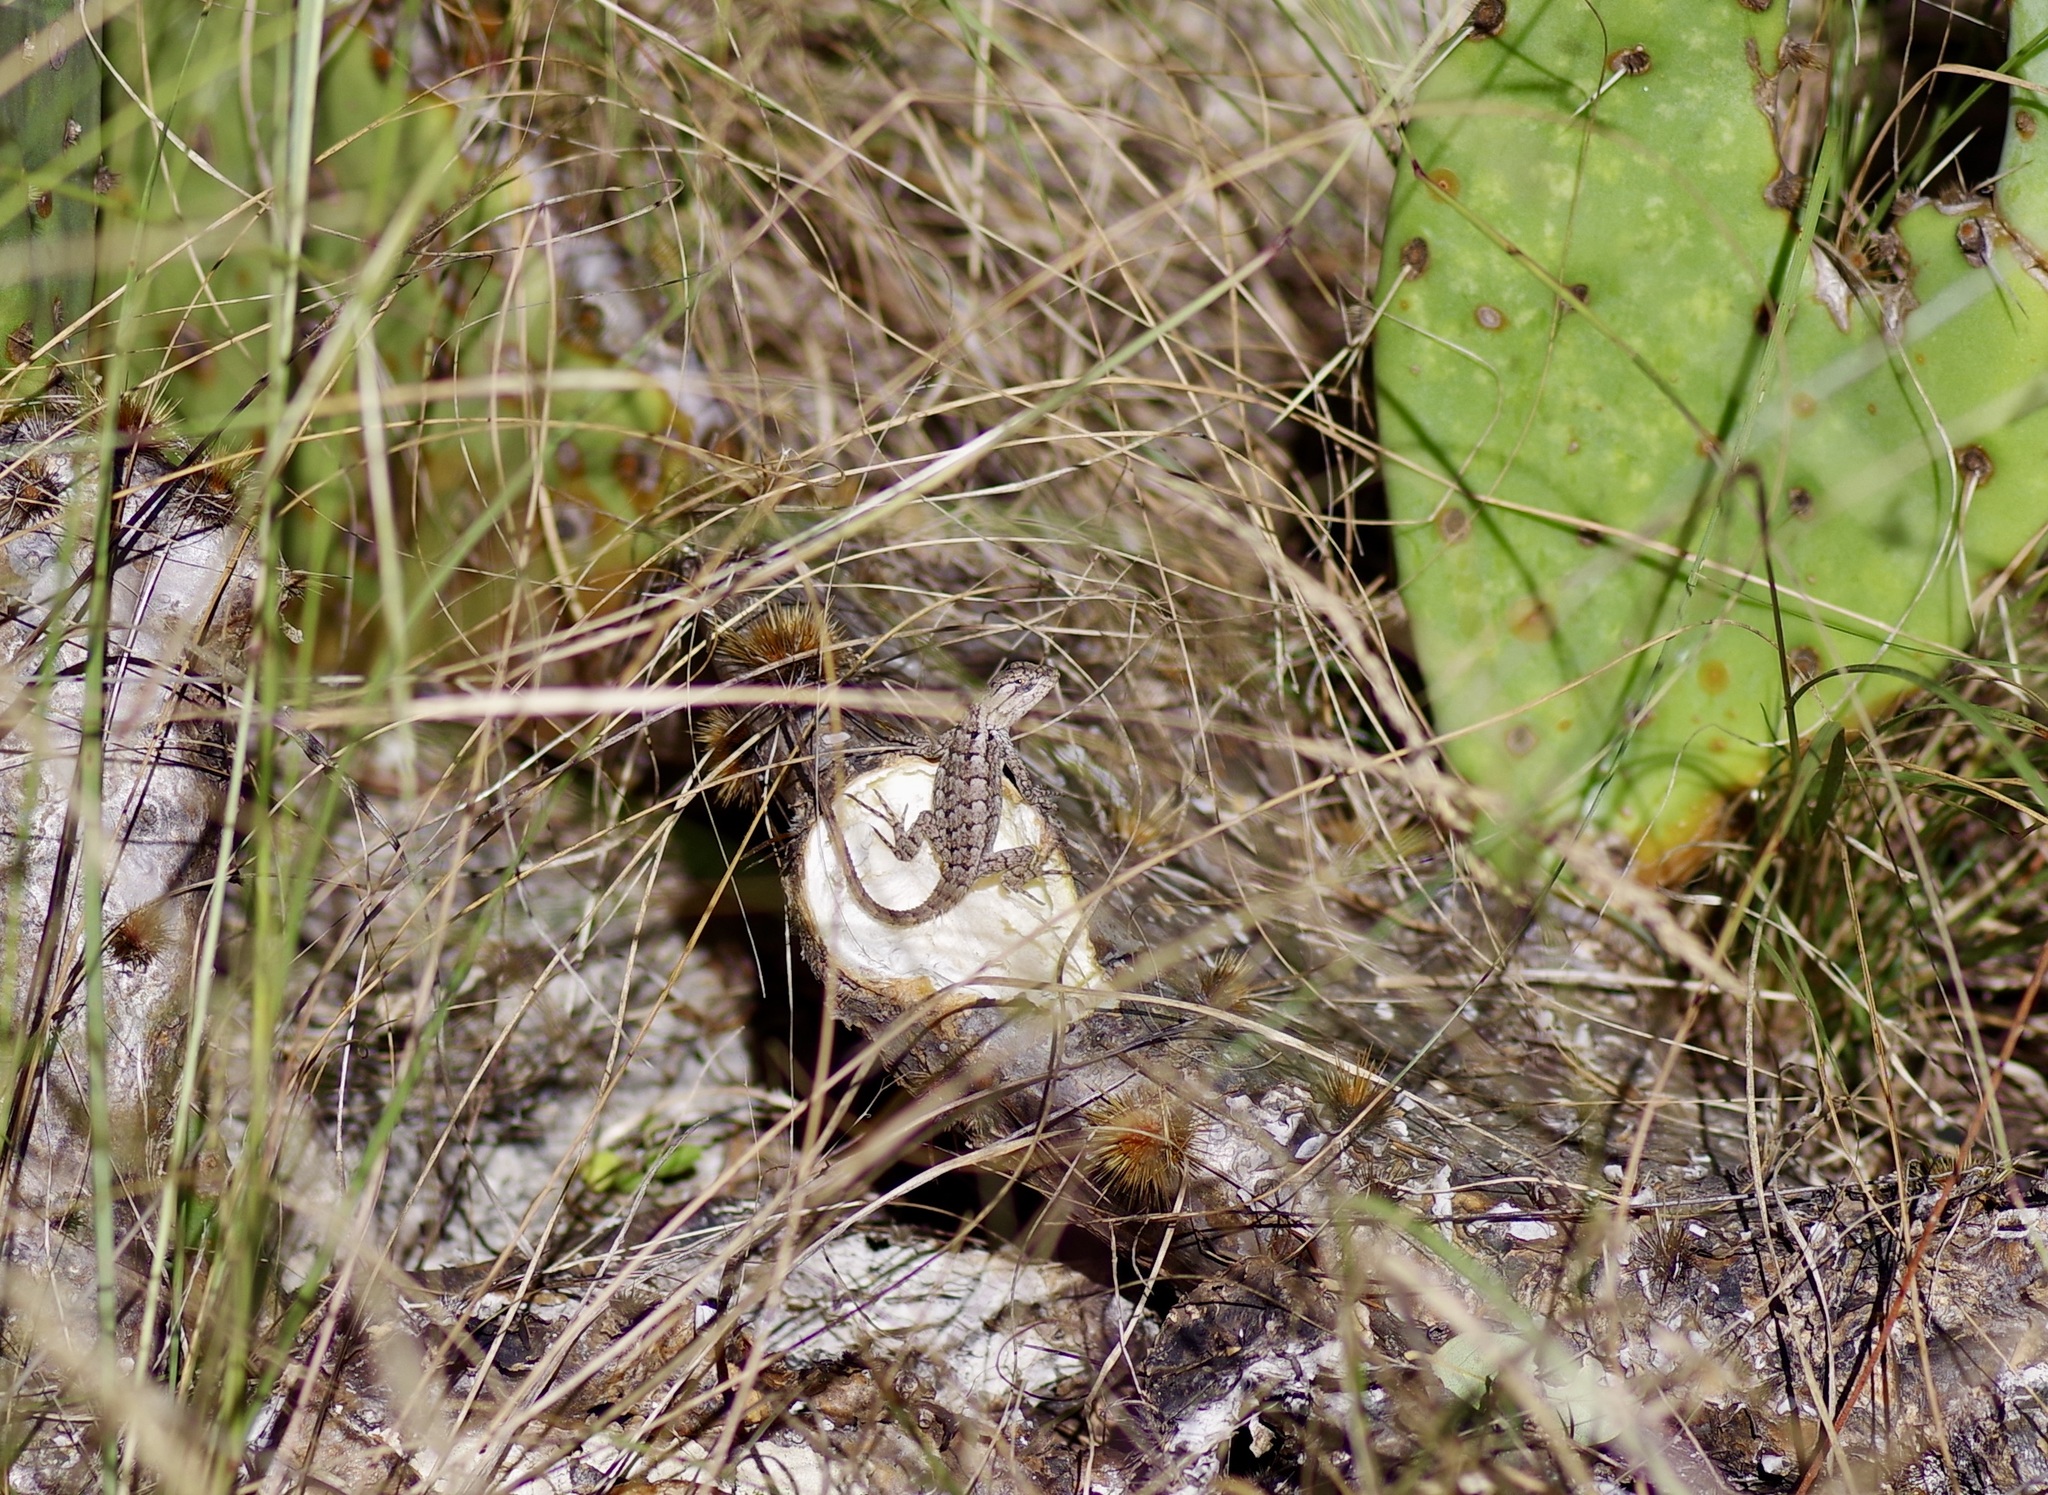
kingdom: Animalia
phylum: Chordata
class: Squamata
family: Phrynosomatidae
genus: Sceloporus
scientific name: Sceloporus olivaceus
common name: Texas spiny lizard
